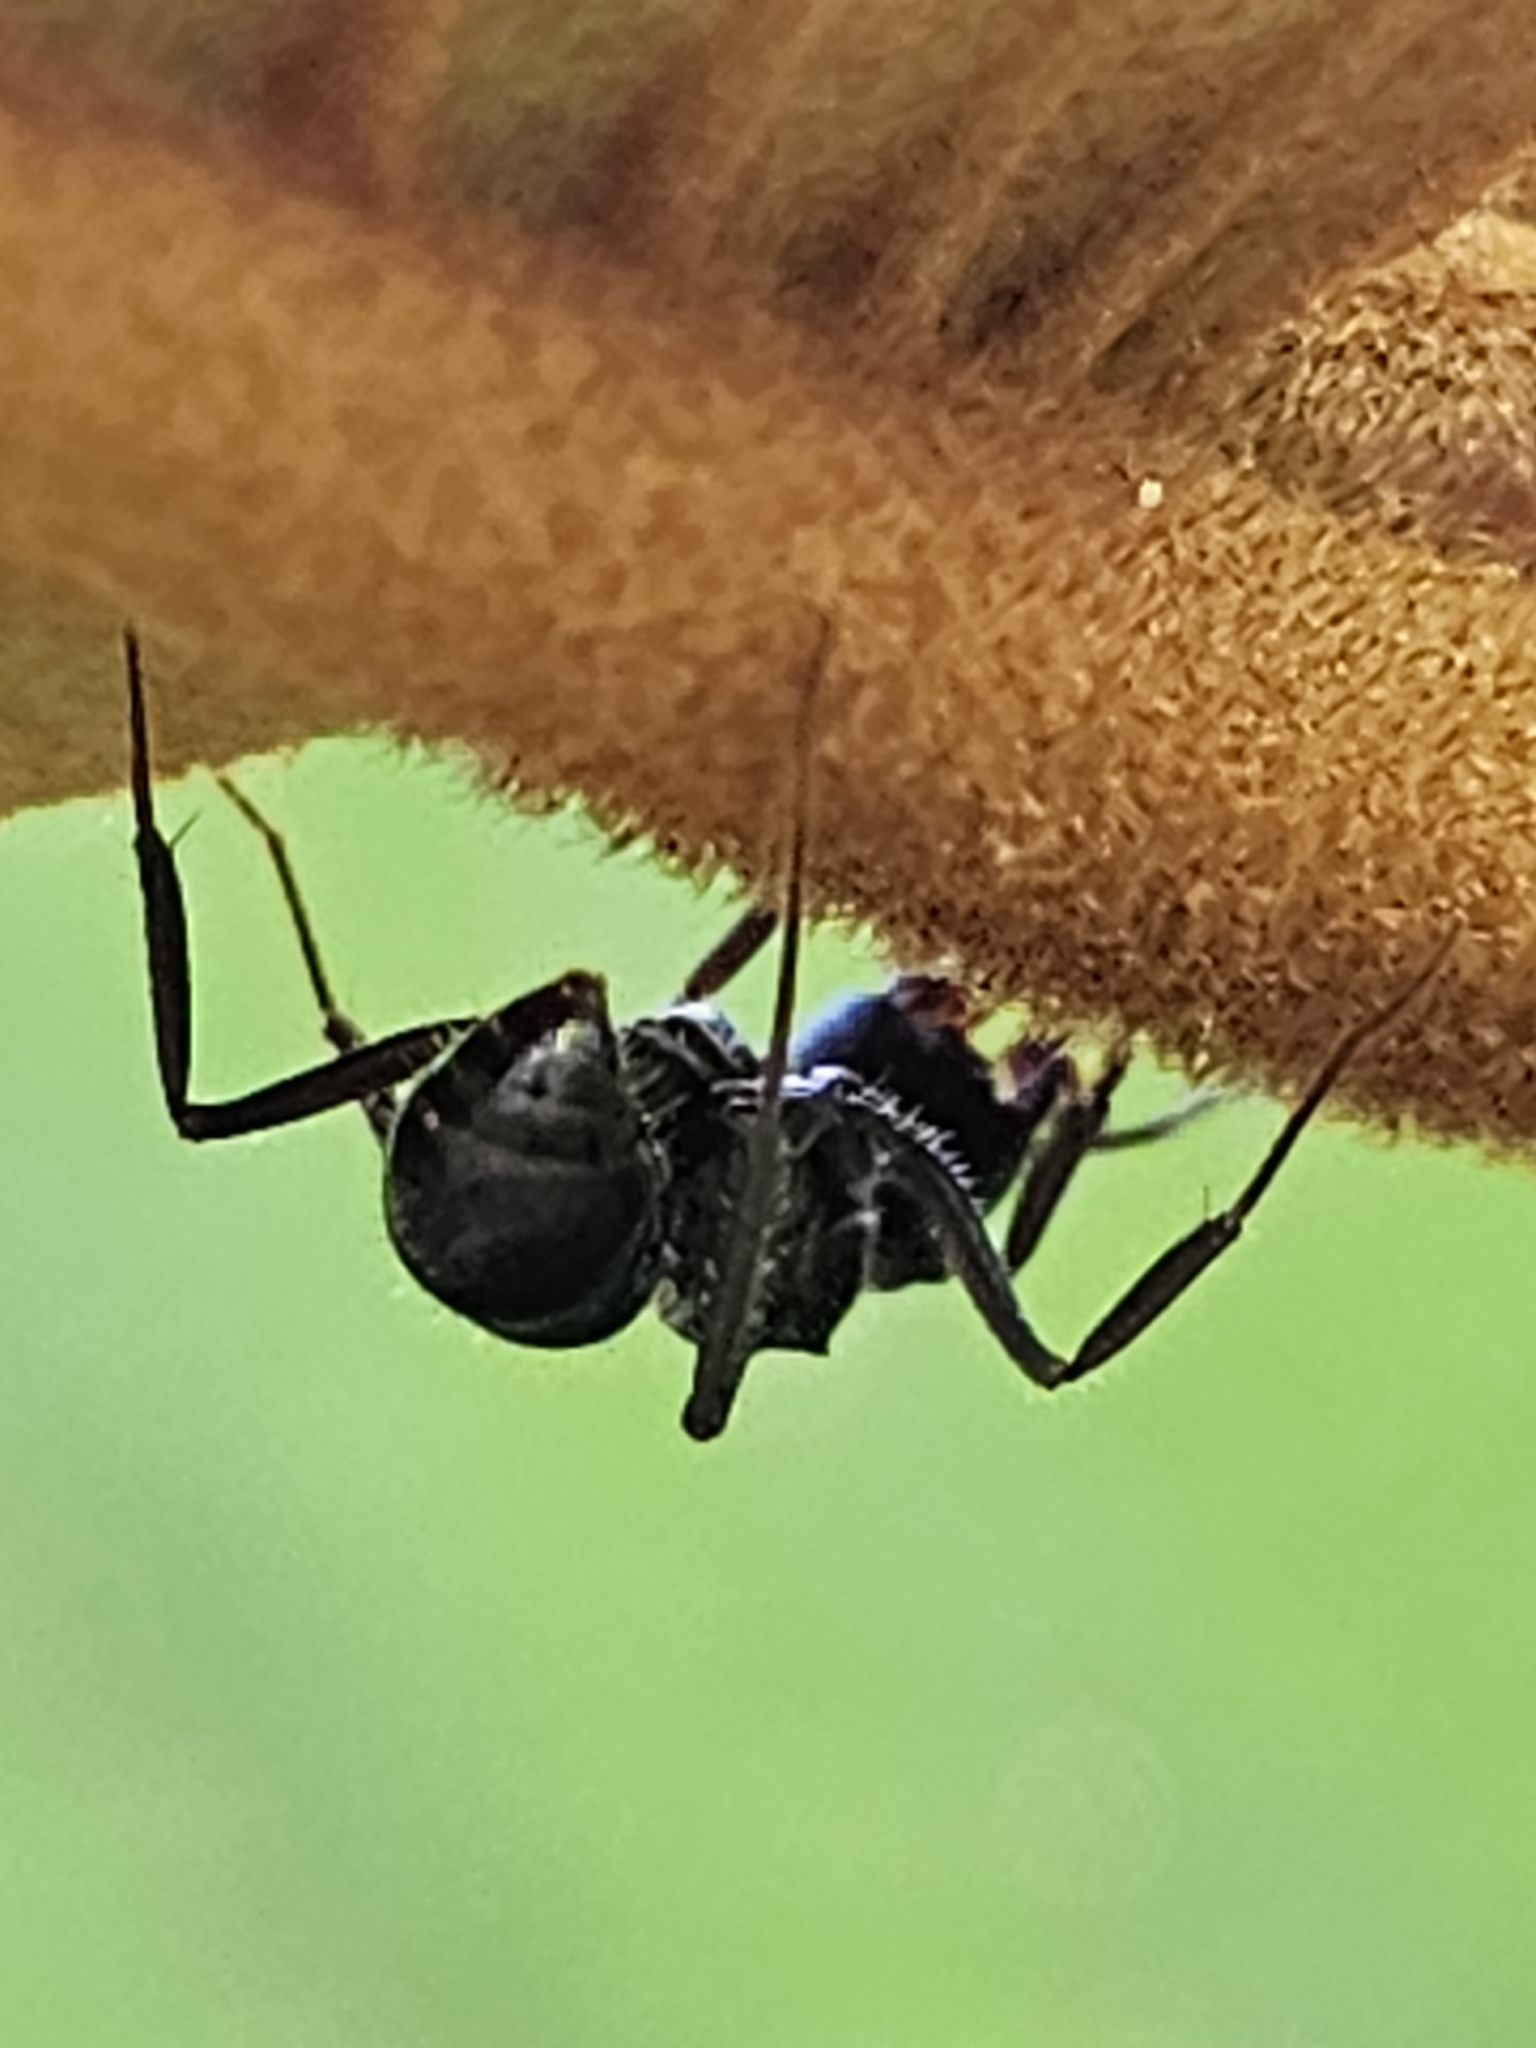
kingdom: Animalia
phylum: Arthropoda
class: Insecta
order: Hymenoptera
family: Formicidae
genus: Ectatomma
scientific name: Ectatomma brunneum
